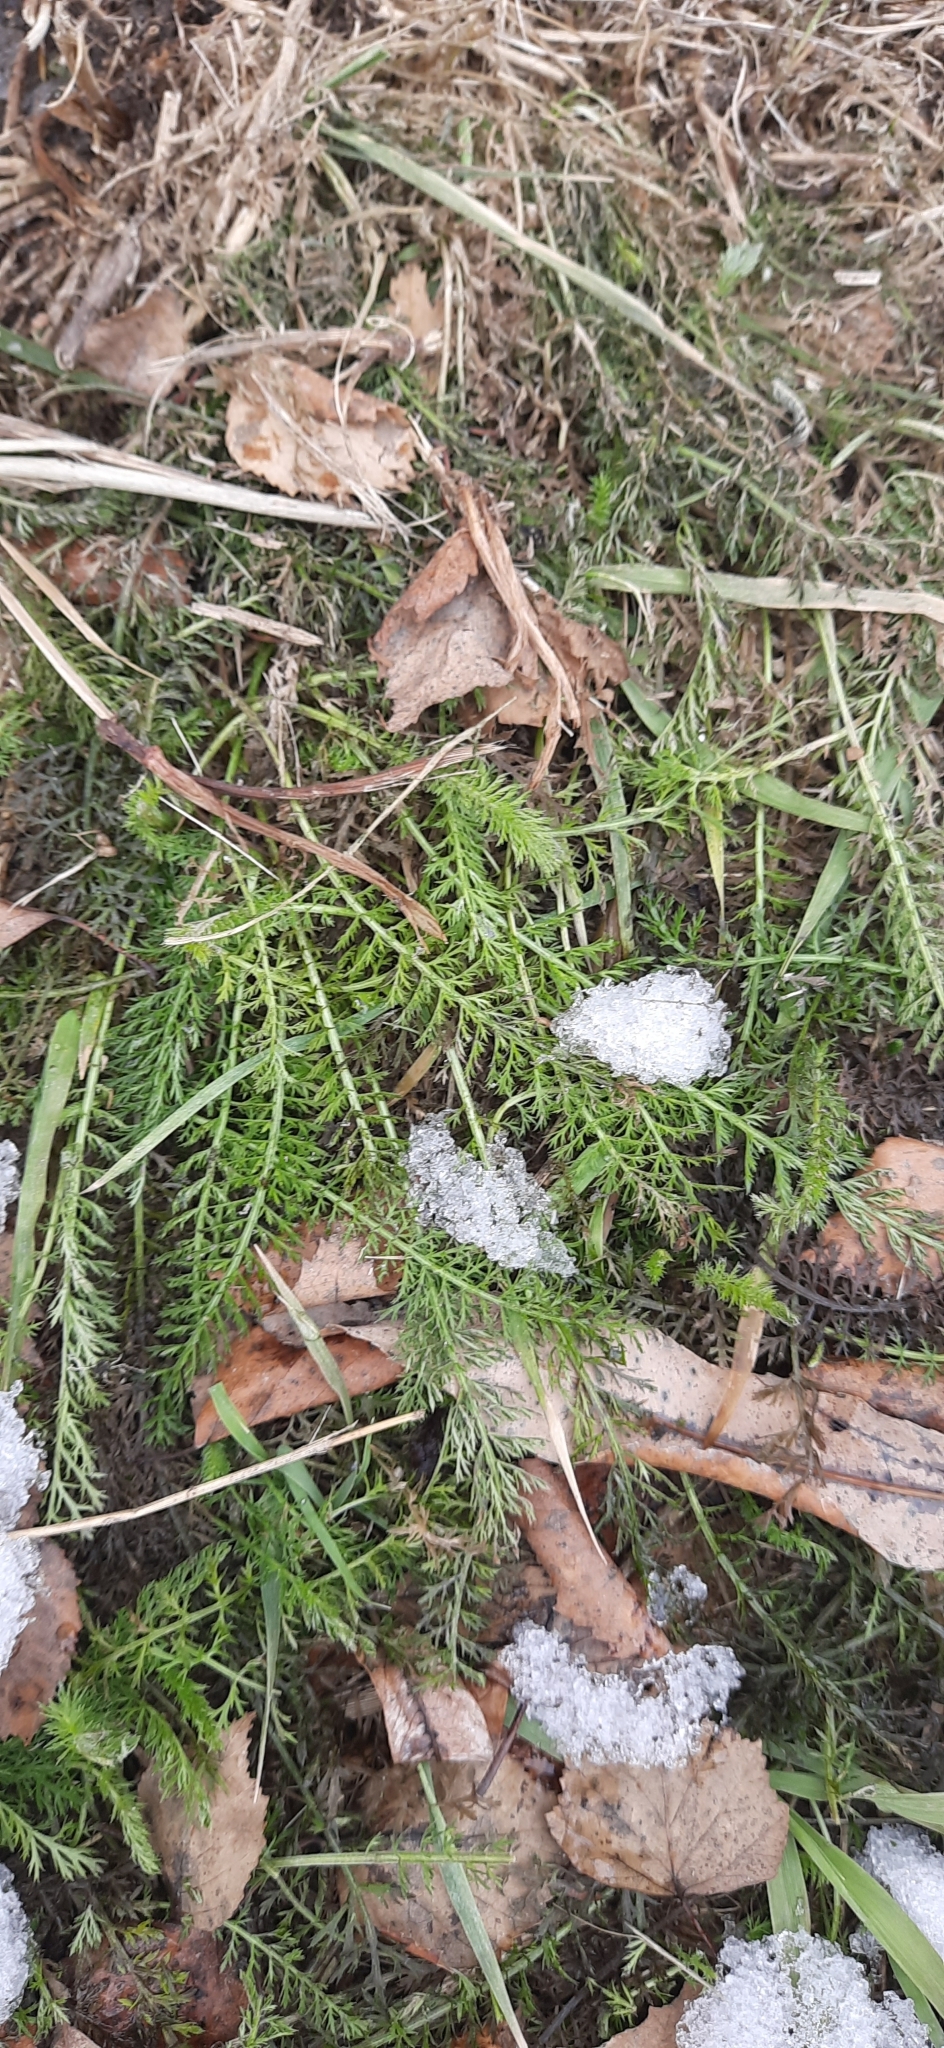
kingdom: Plantae
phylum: Tracheophyta
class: Magnoliopsida
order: Asterales
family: Asteraceae
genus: Achillea
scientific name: Achillea millefolium
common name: Yarrow
